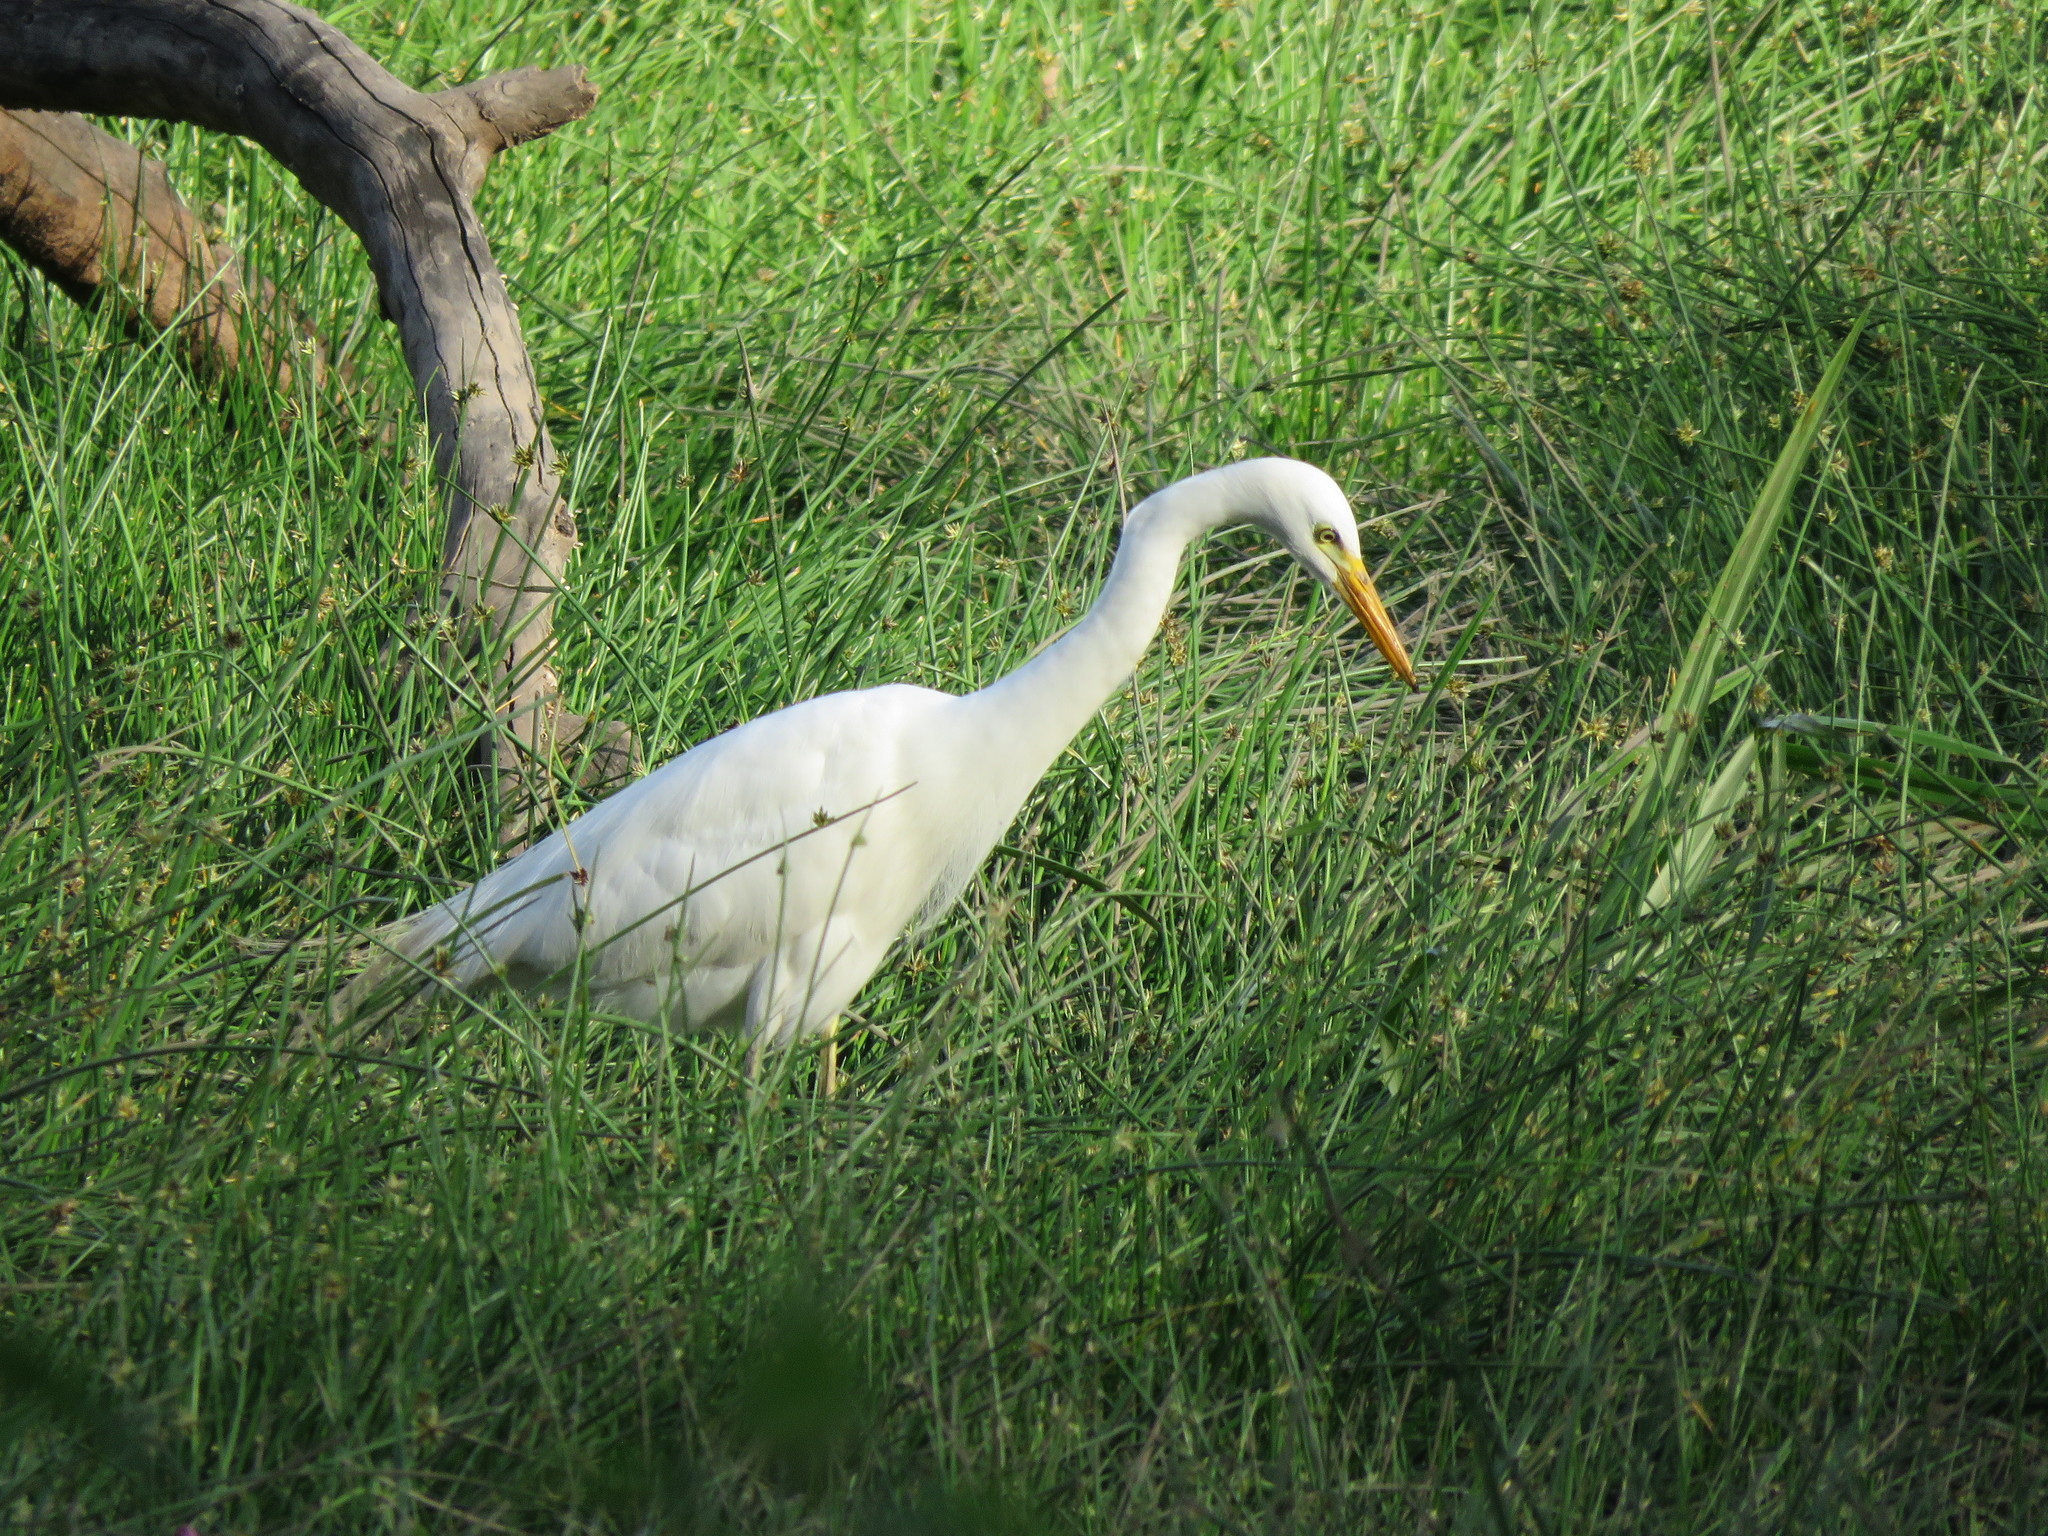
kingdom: Animalia
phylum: Chordata
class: Aves
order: Pelecaniformes
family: Ardeidae
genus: Egretta
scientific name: Egretta intermedia
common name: Intermediate egret
